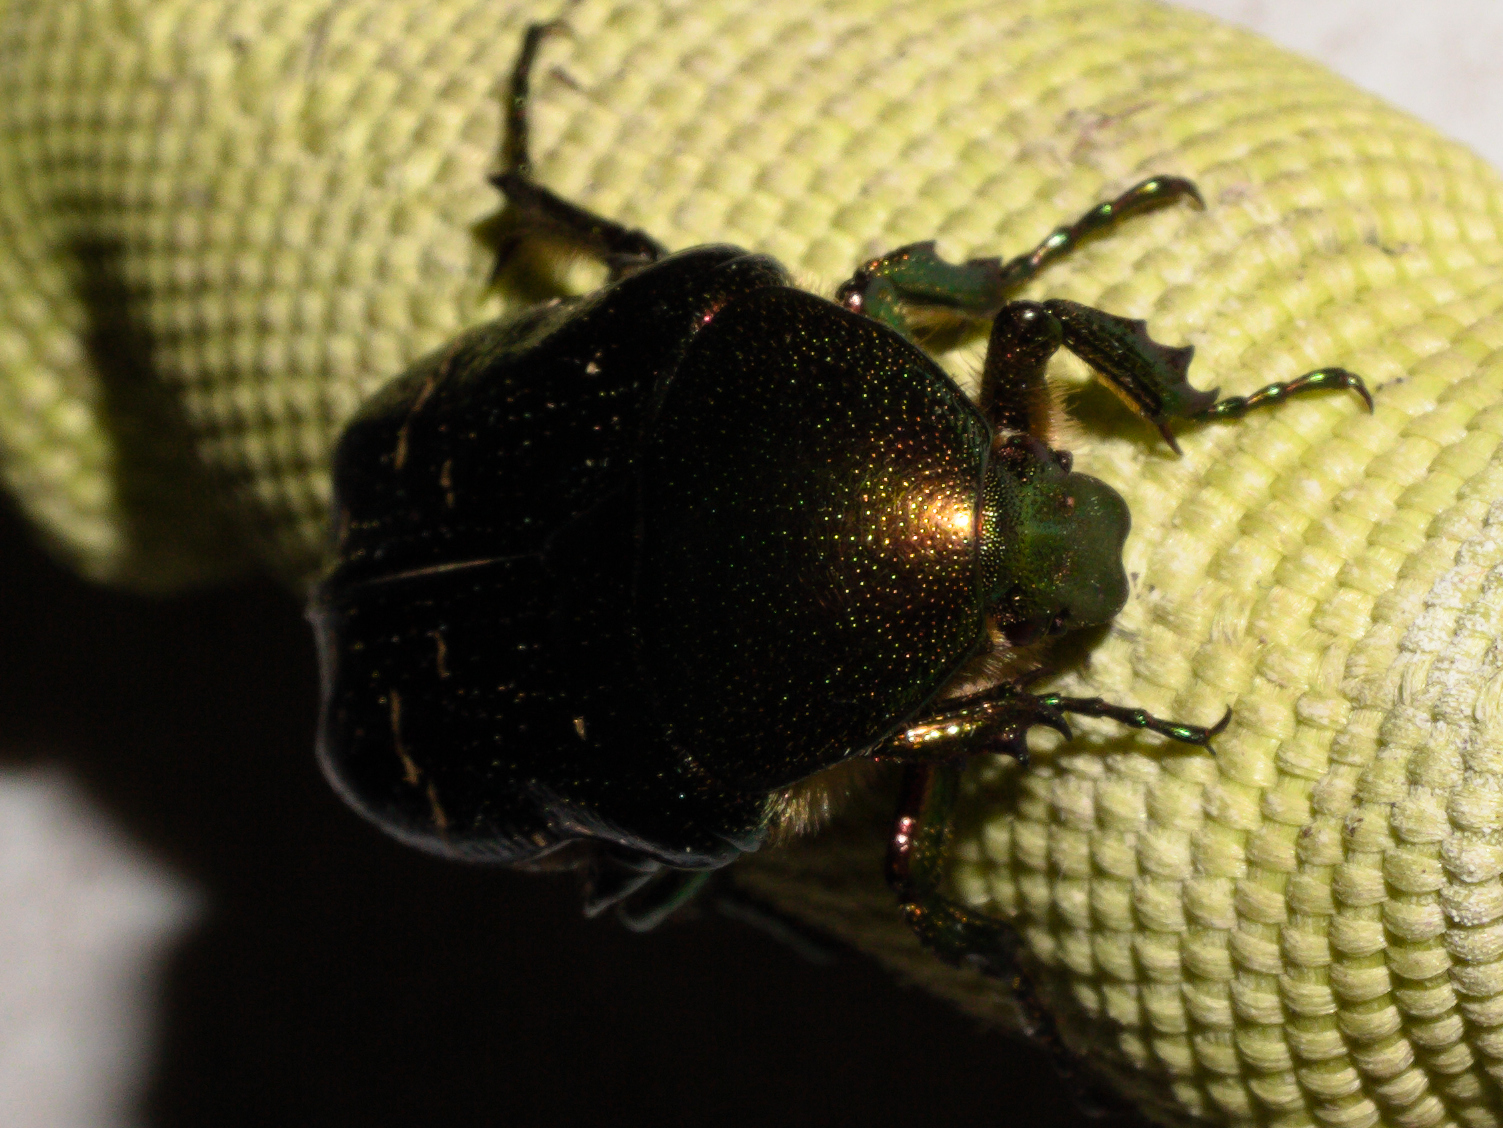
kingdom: Animalia
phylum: Arthropoda
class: Insecta
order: Coleoptera
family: Scarabaeidae
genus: Cetonia
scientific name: Cetonia aurata
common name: Rose chafer
